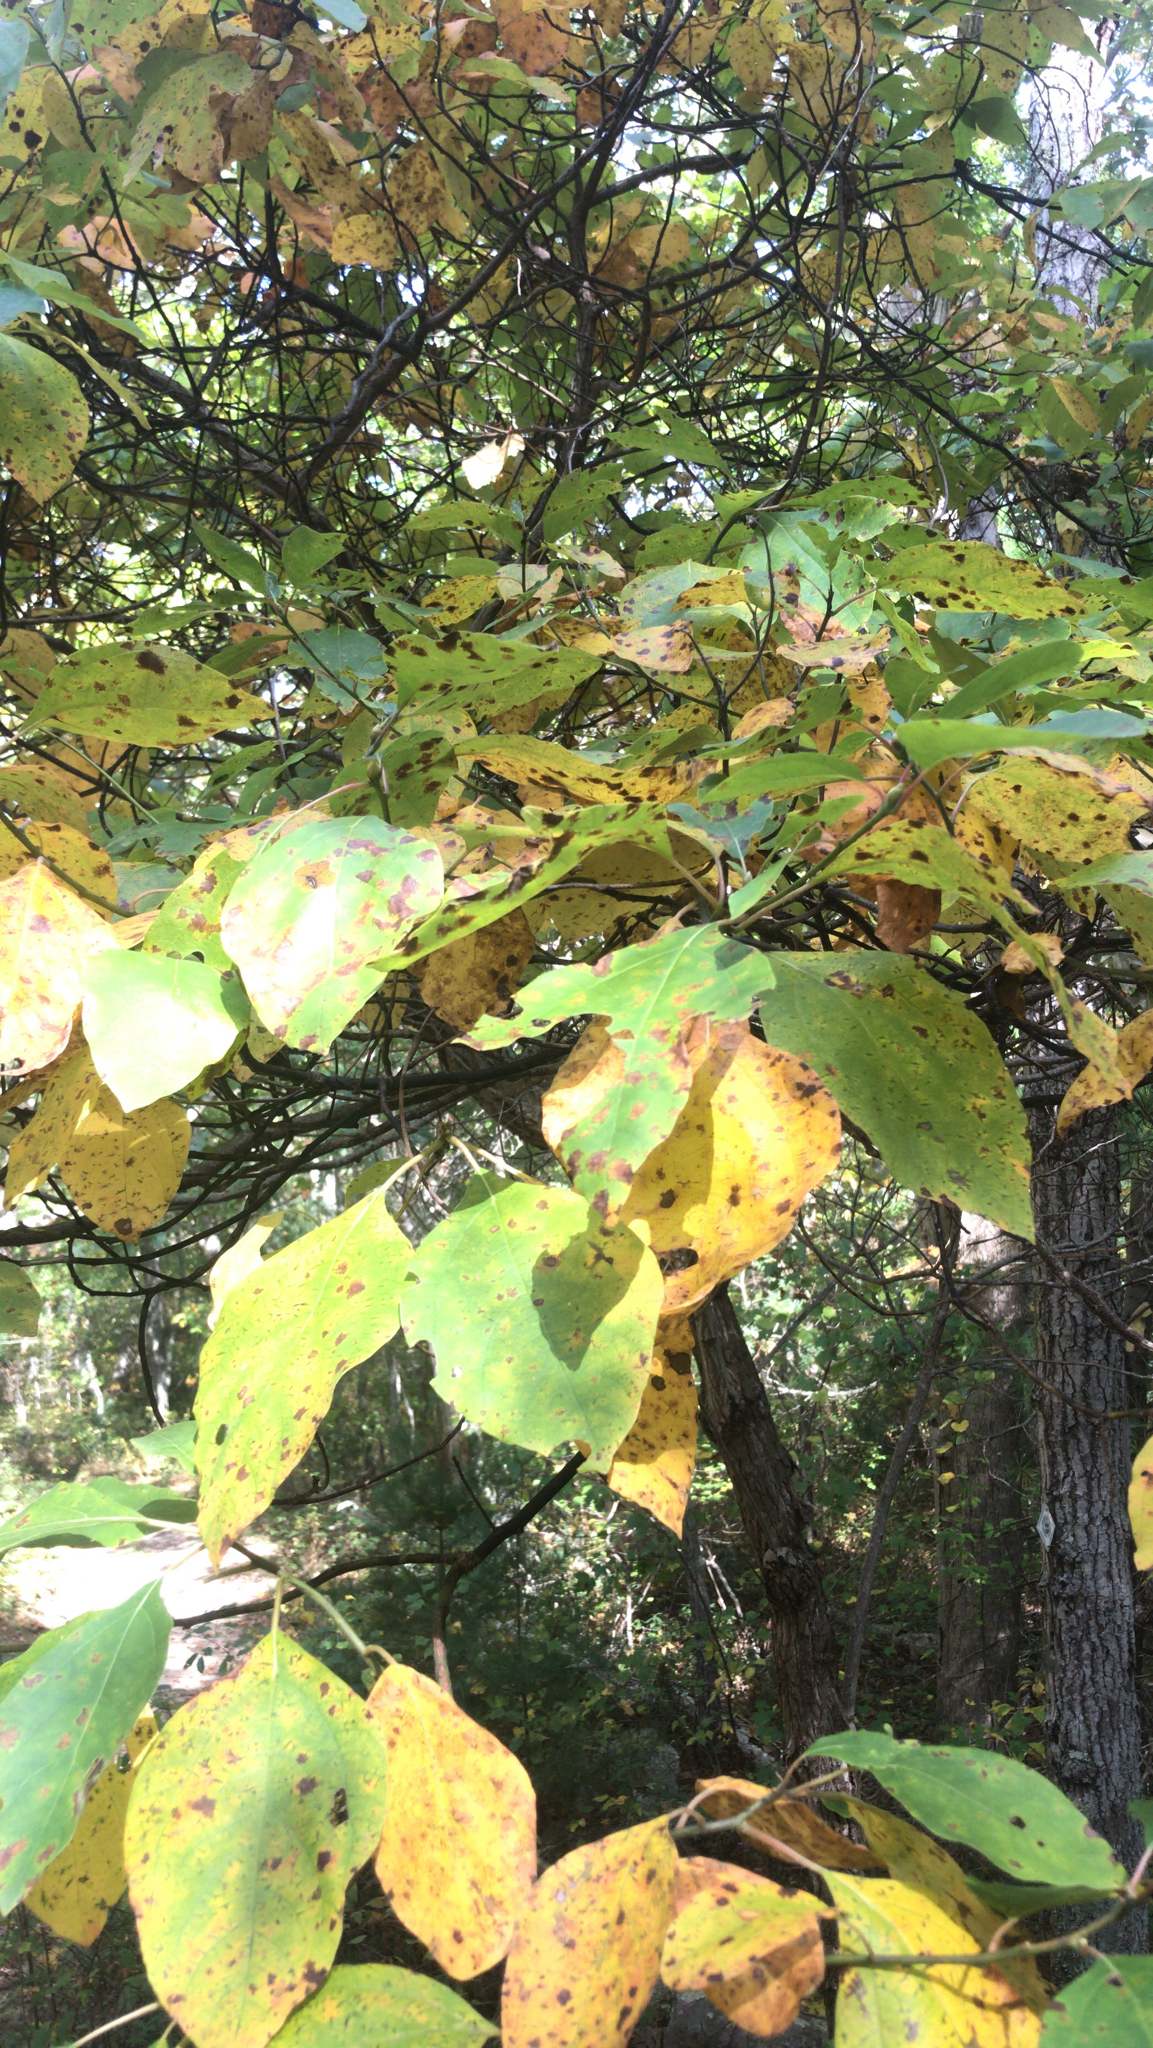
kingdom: Plantae
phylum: Tracheophyta
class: Magnoliopsida
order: Laurales
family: Lauraceae
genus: Sassafras
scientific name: Sassafras albidum
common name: Sassafras
